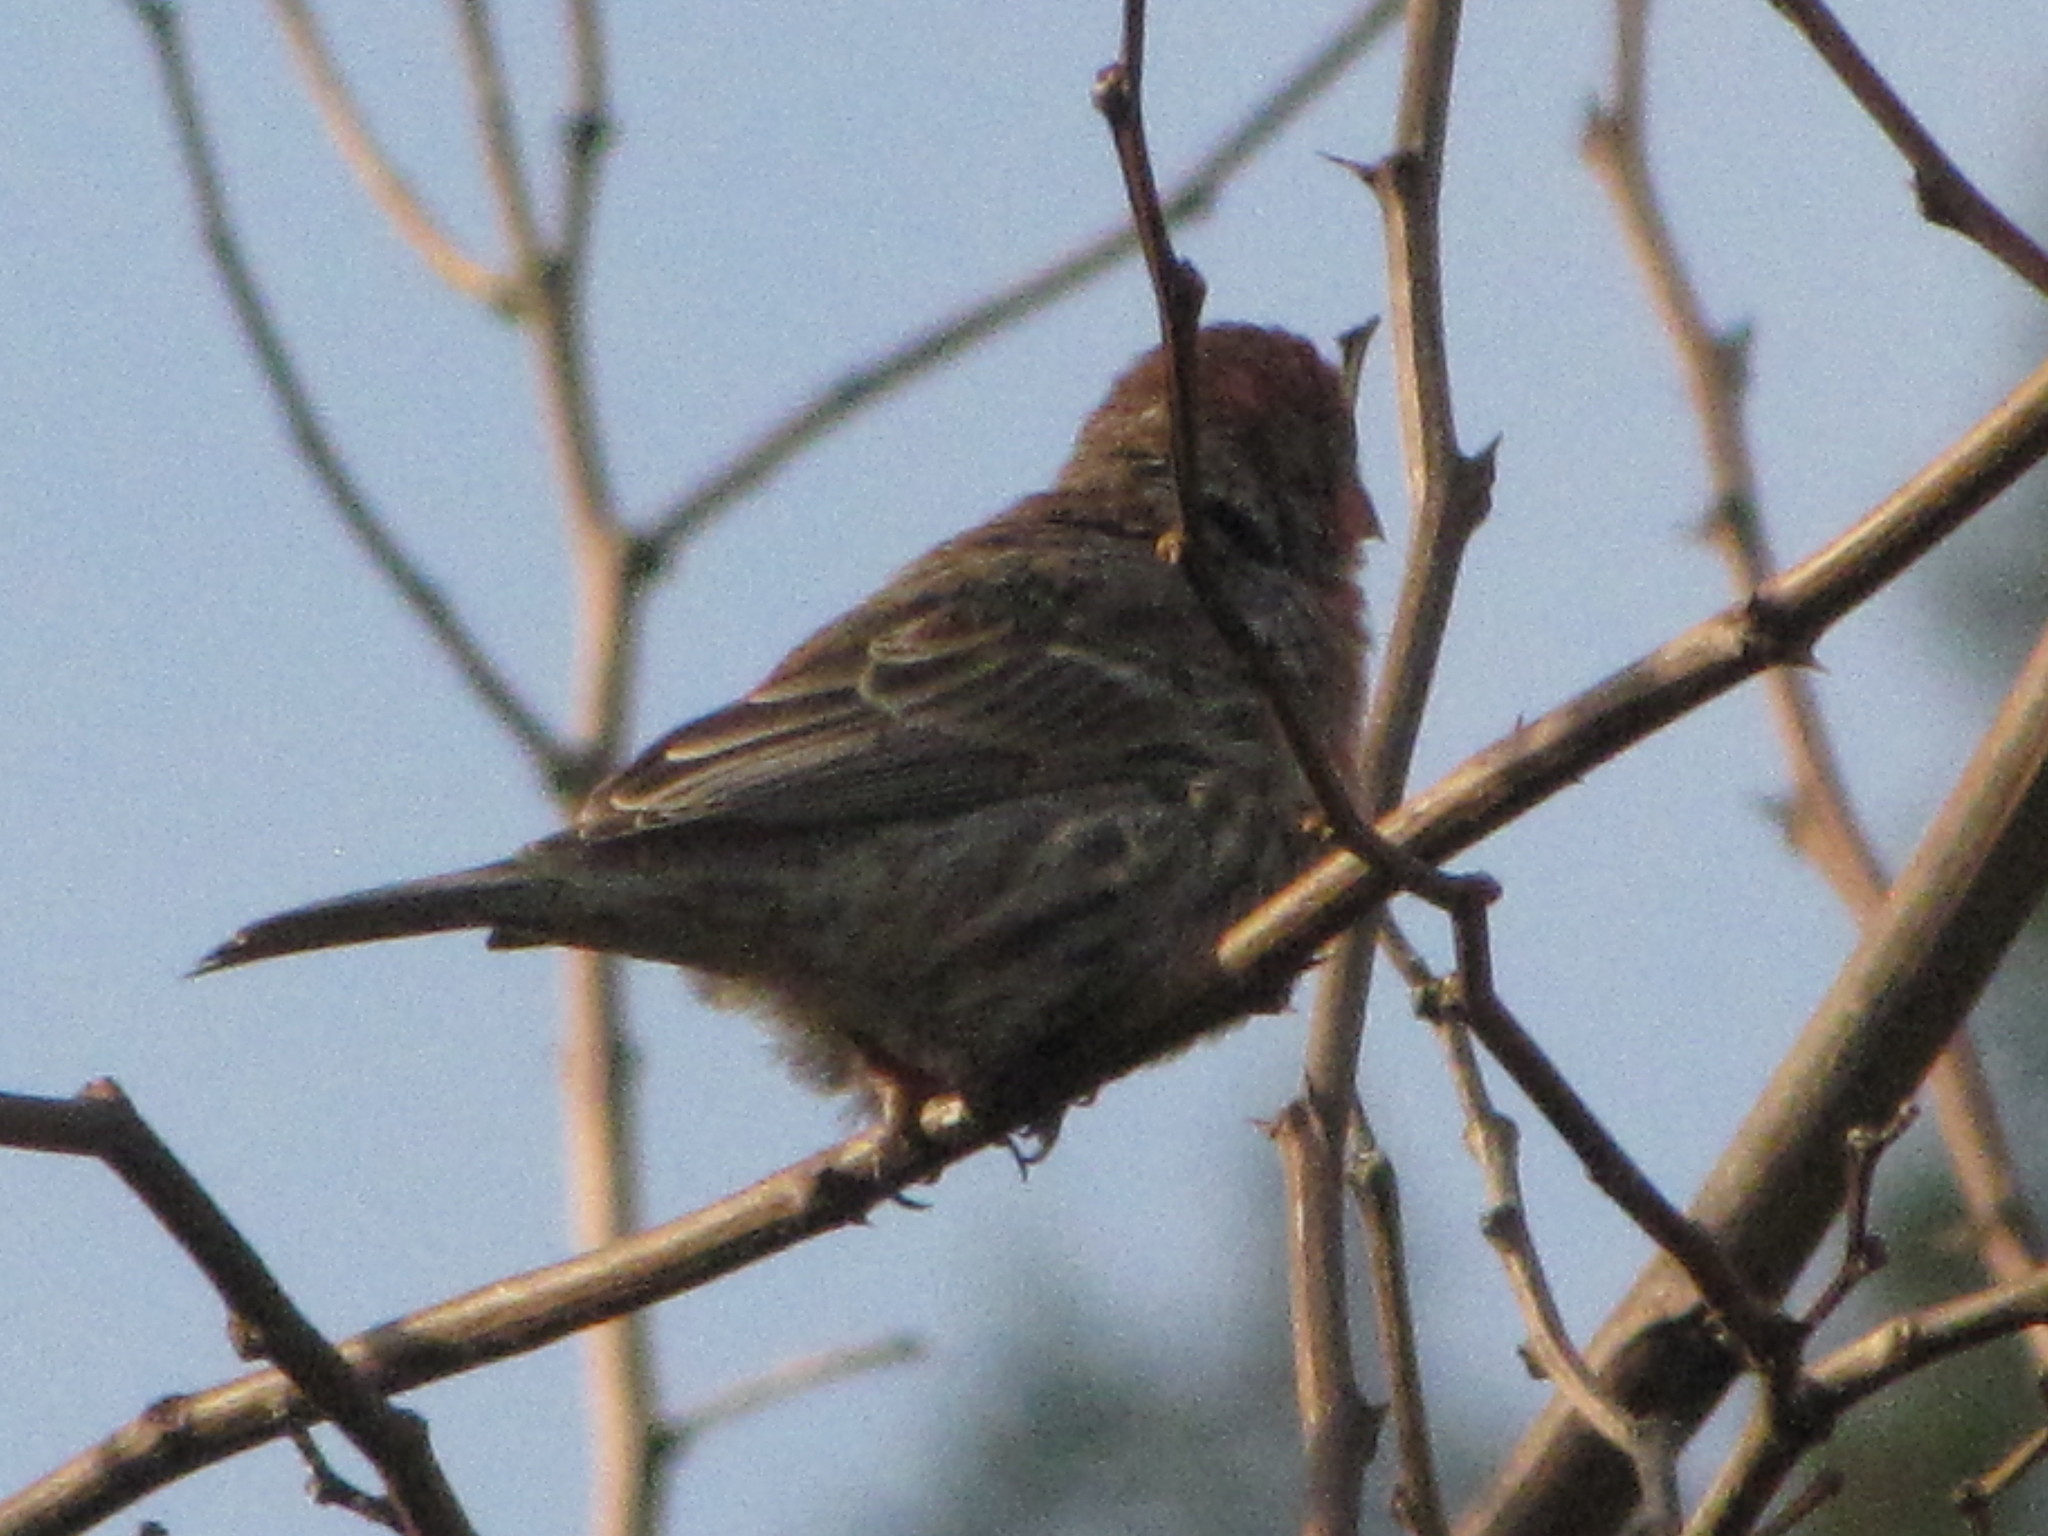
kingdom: Animalia
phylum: Chordata
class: Aves
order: Passeriformes
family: Fringillidae
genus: Haemorhous
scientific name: Haemorhous mexicanus
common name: House finch
